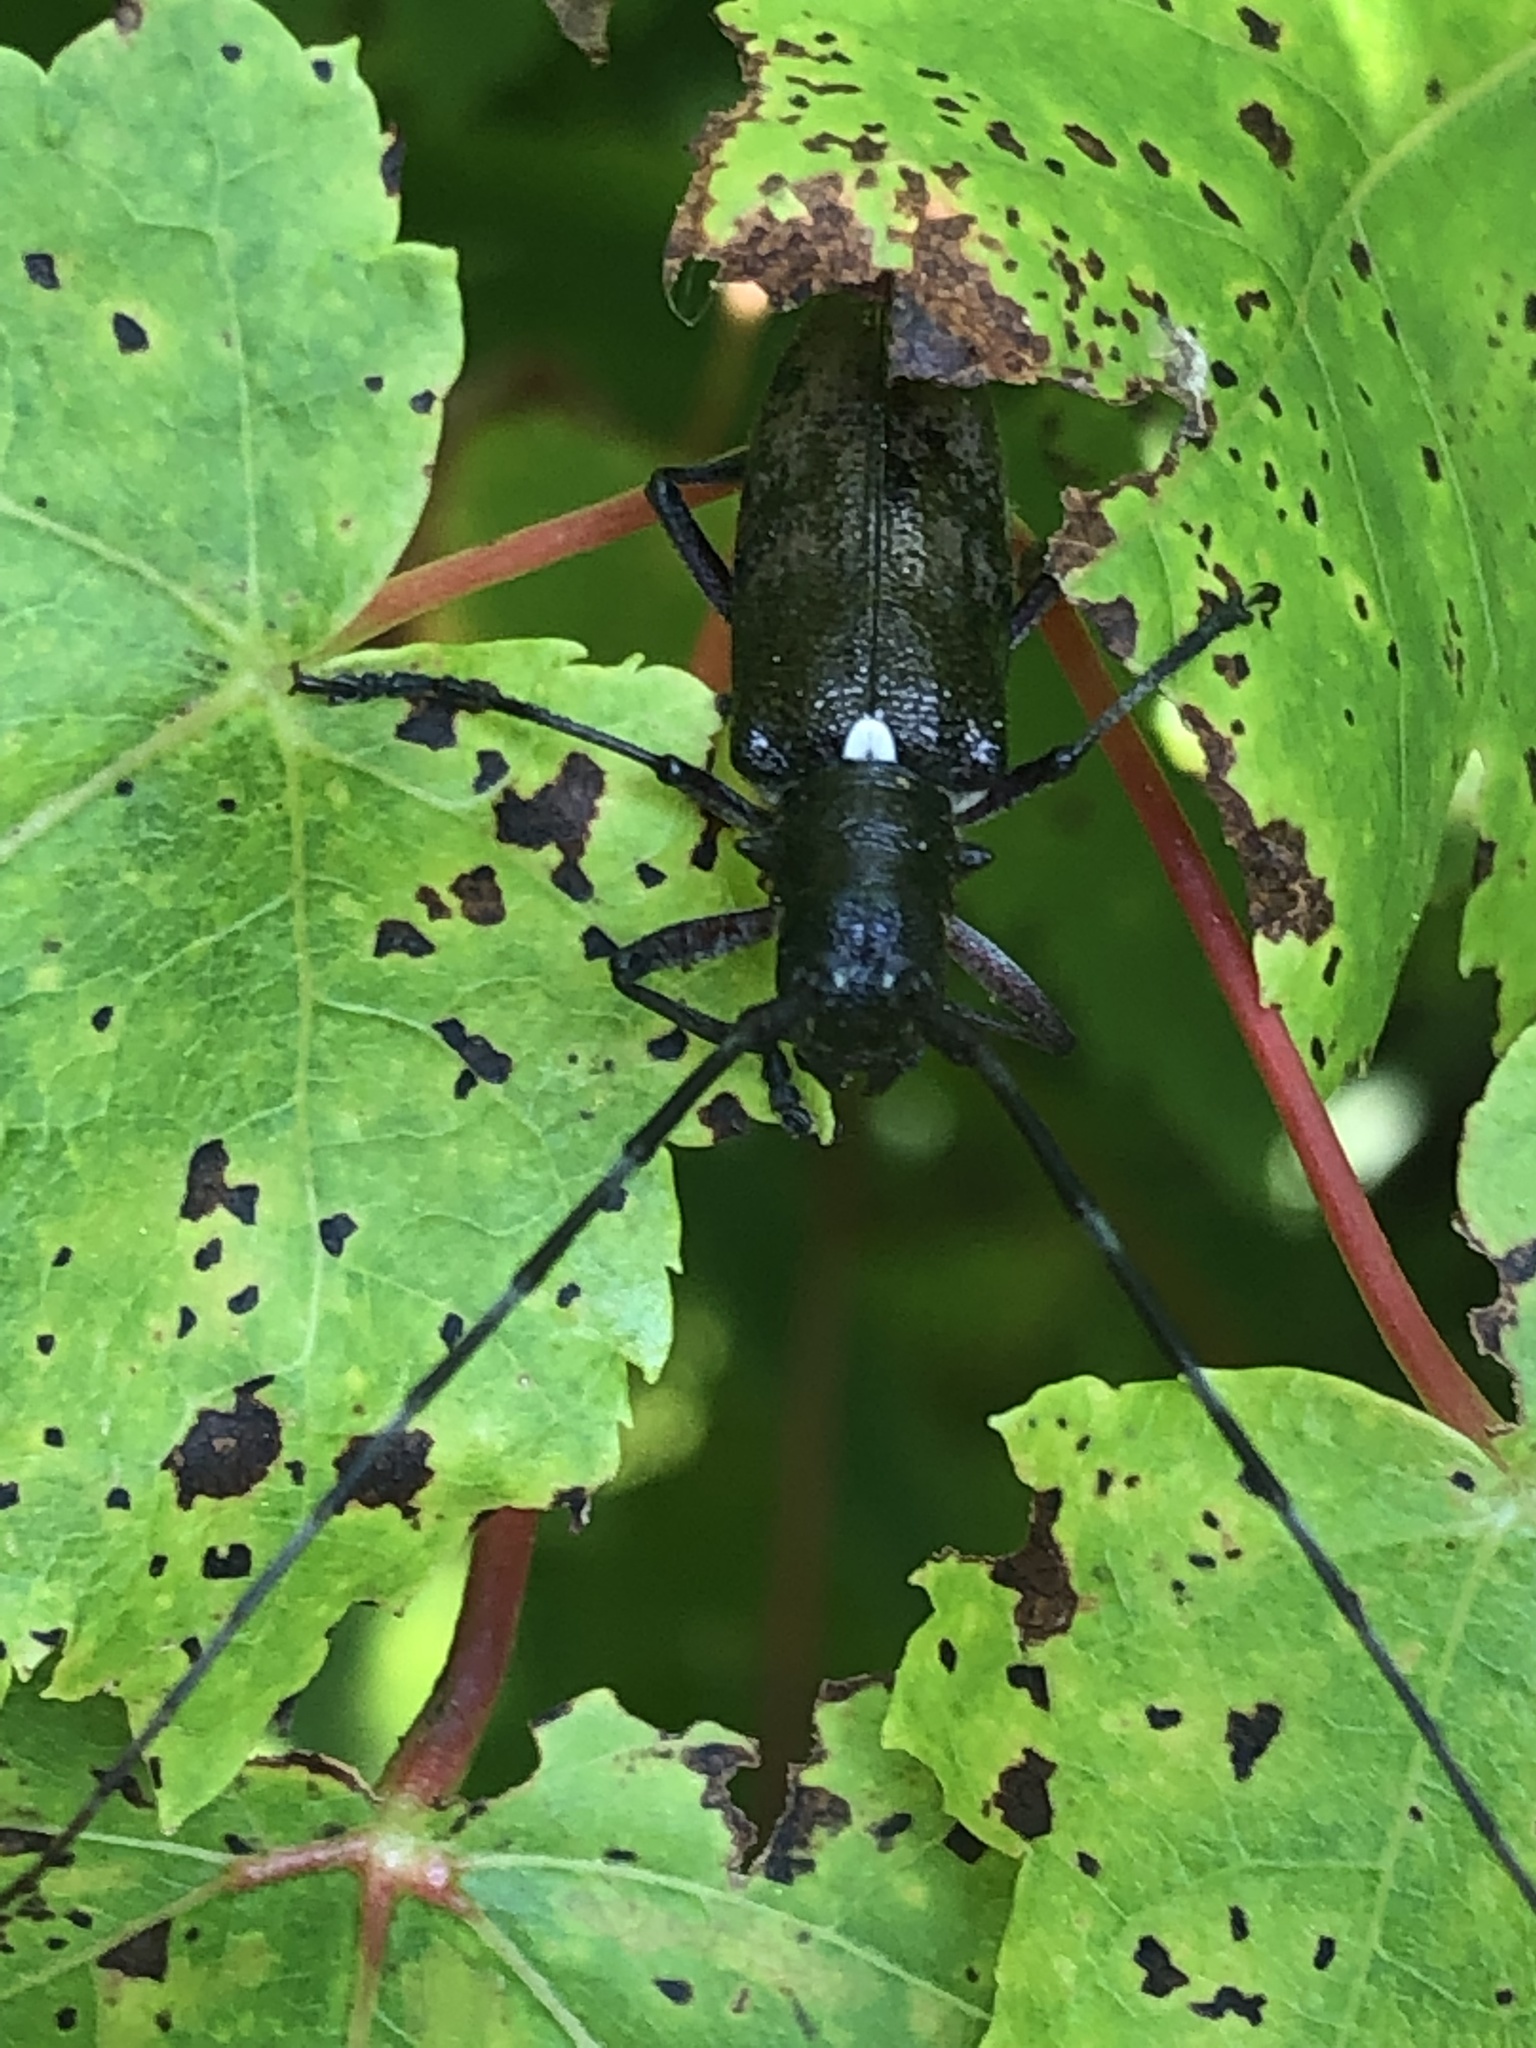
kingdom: Animalia
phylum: Arthropoda
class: Insecta
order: Coleoptera
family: Cerambycidae
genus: Monochamus
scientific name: Monochamus scutellatus
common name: White-spotted sawyer beetle
